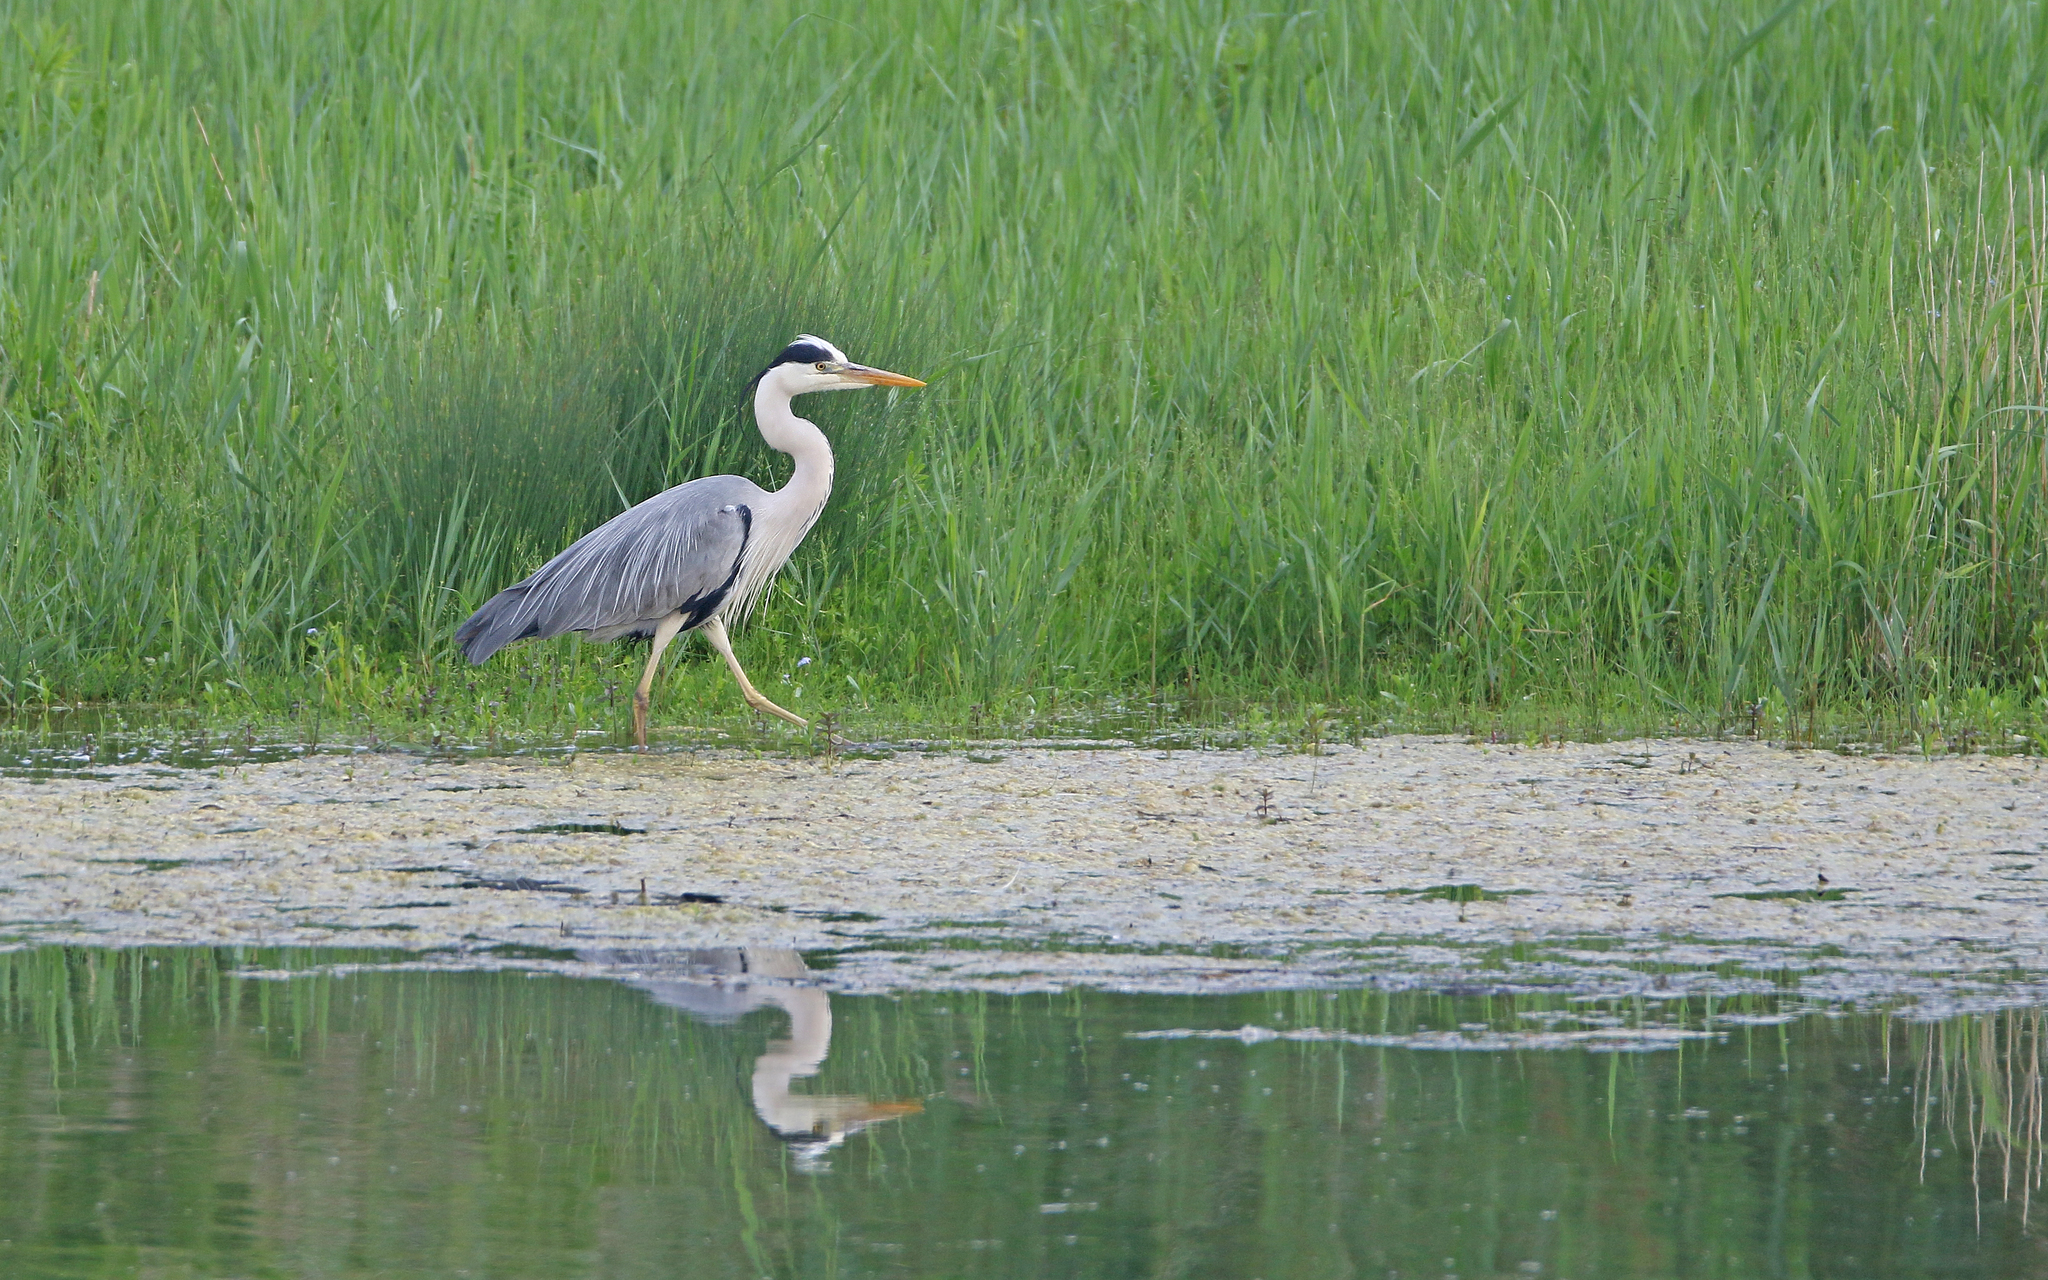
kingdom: Animalia
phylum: Chordata
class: Aves
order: Pelecaniformes
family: Ardeidae
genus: Ardea
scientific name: Ardea cinerea
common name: Grey heron
